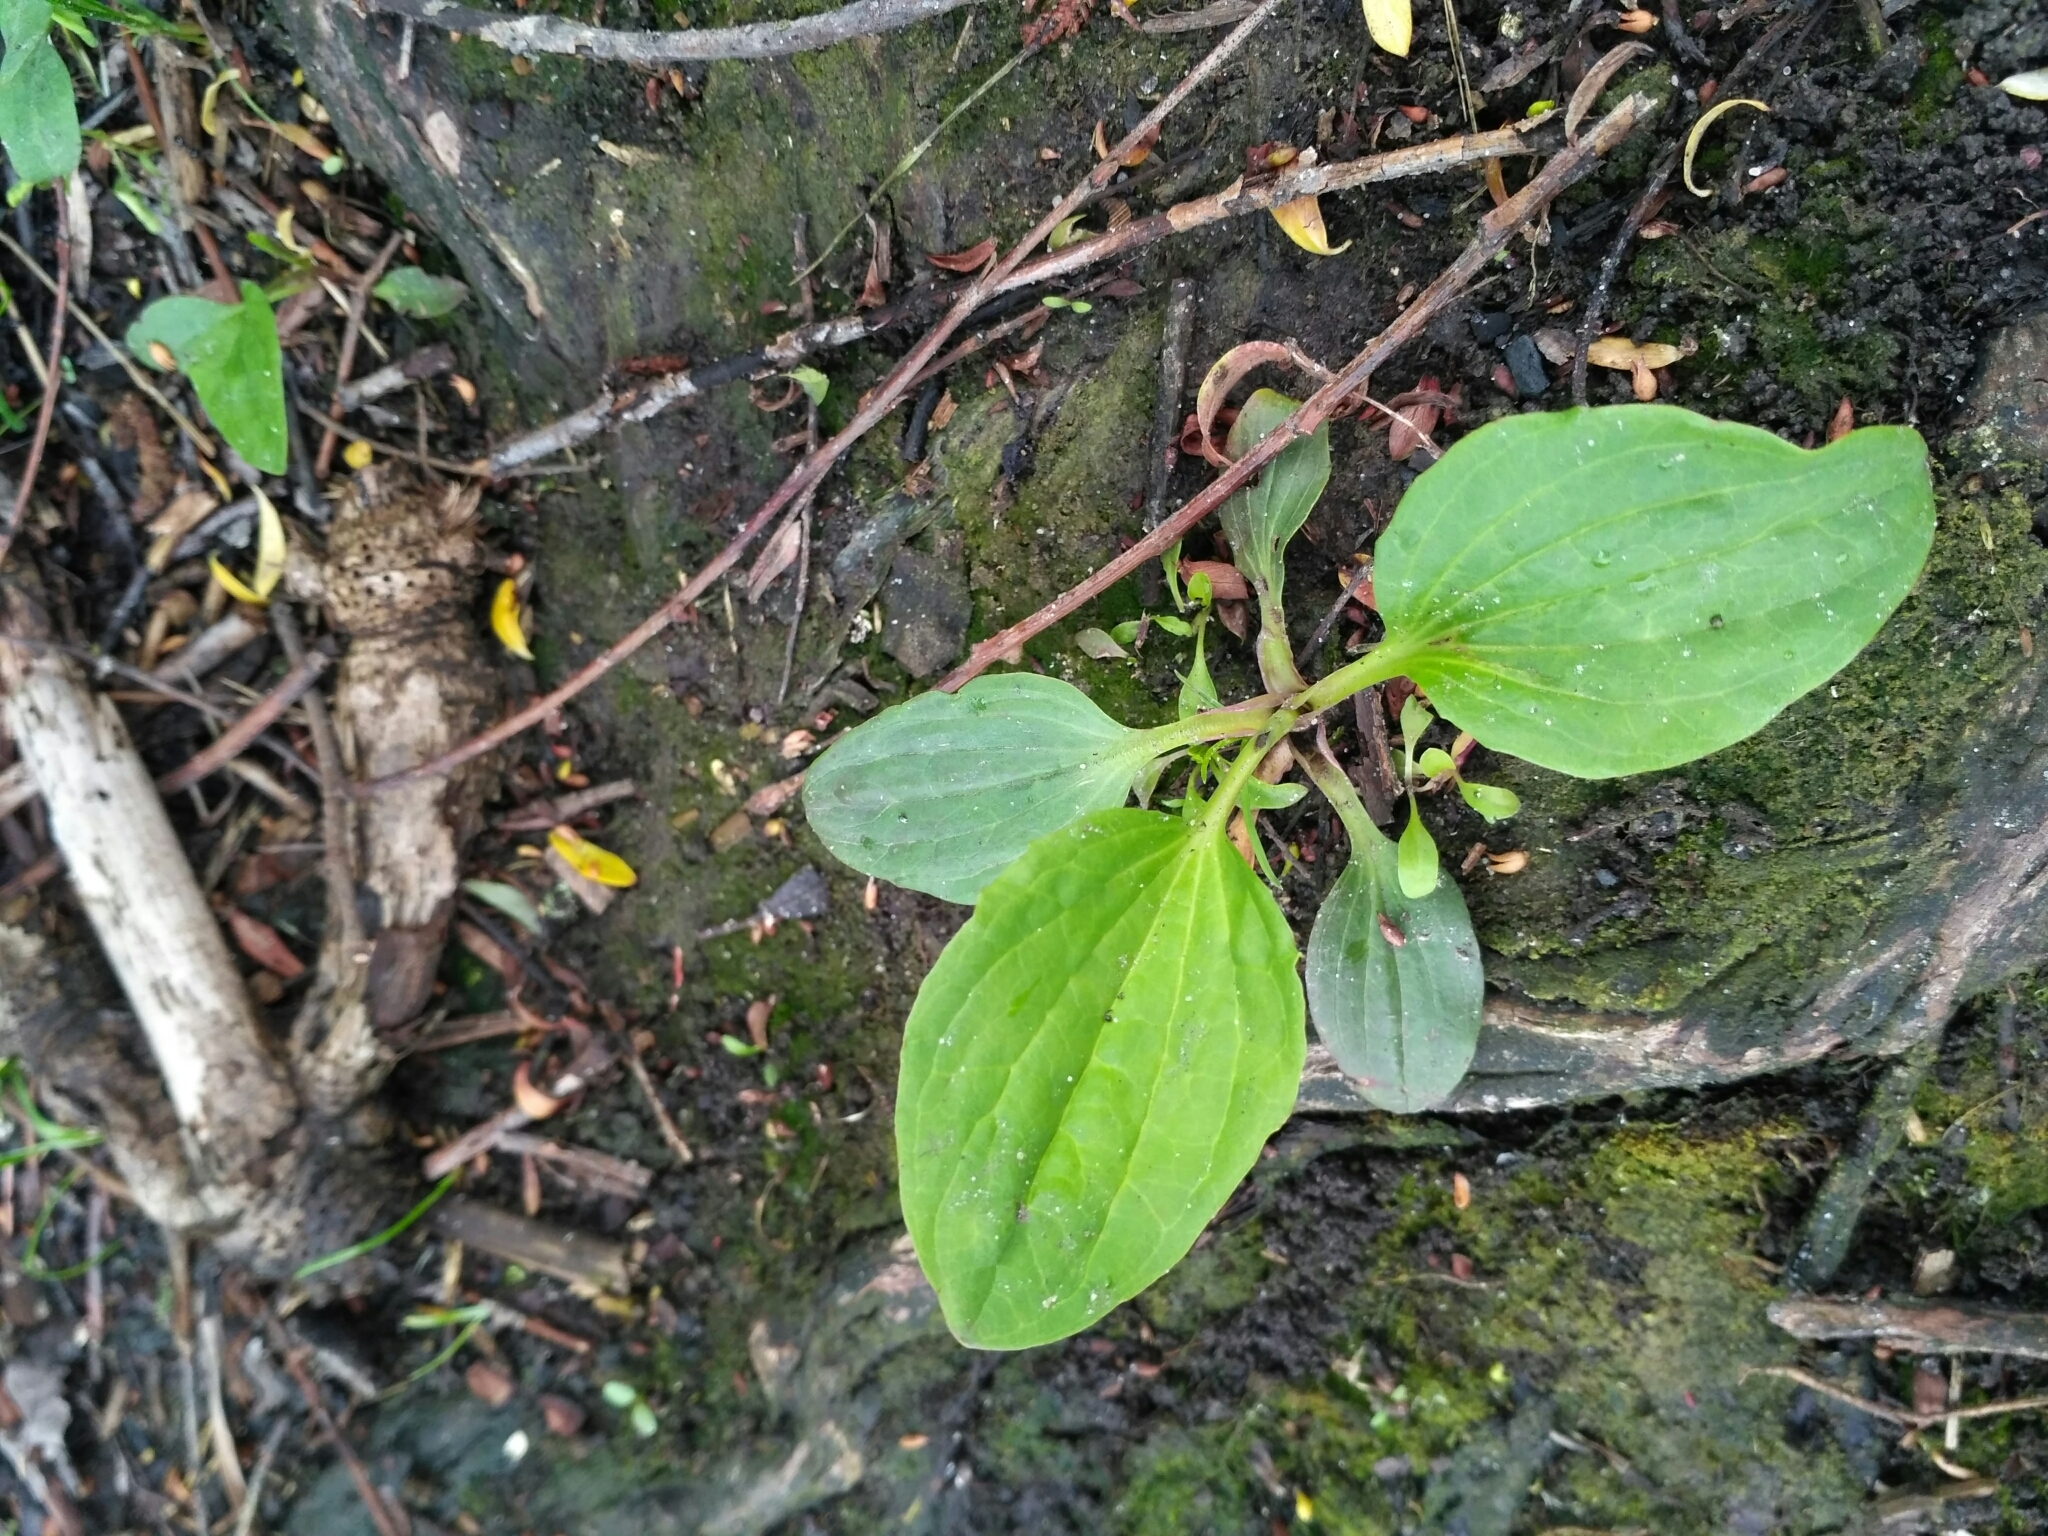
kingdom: Plantae
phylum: Tracheophyta
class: Magnoliopsida
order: Lamiales
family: Plantaginaceae
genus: Plantago
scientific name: Plantago major
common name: Common plantain
